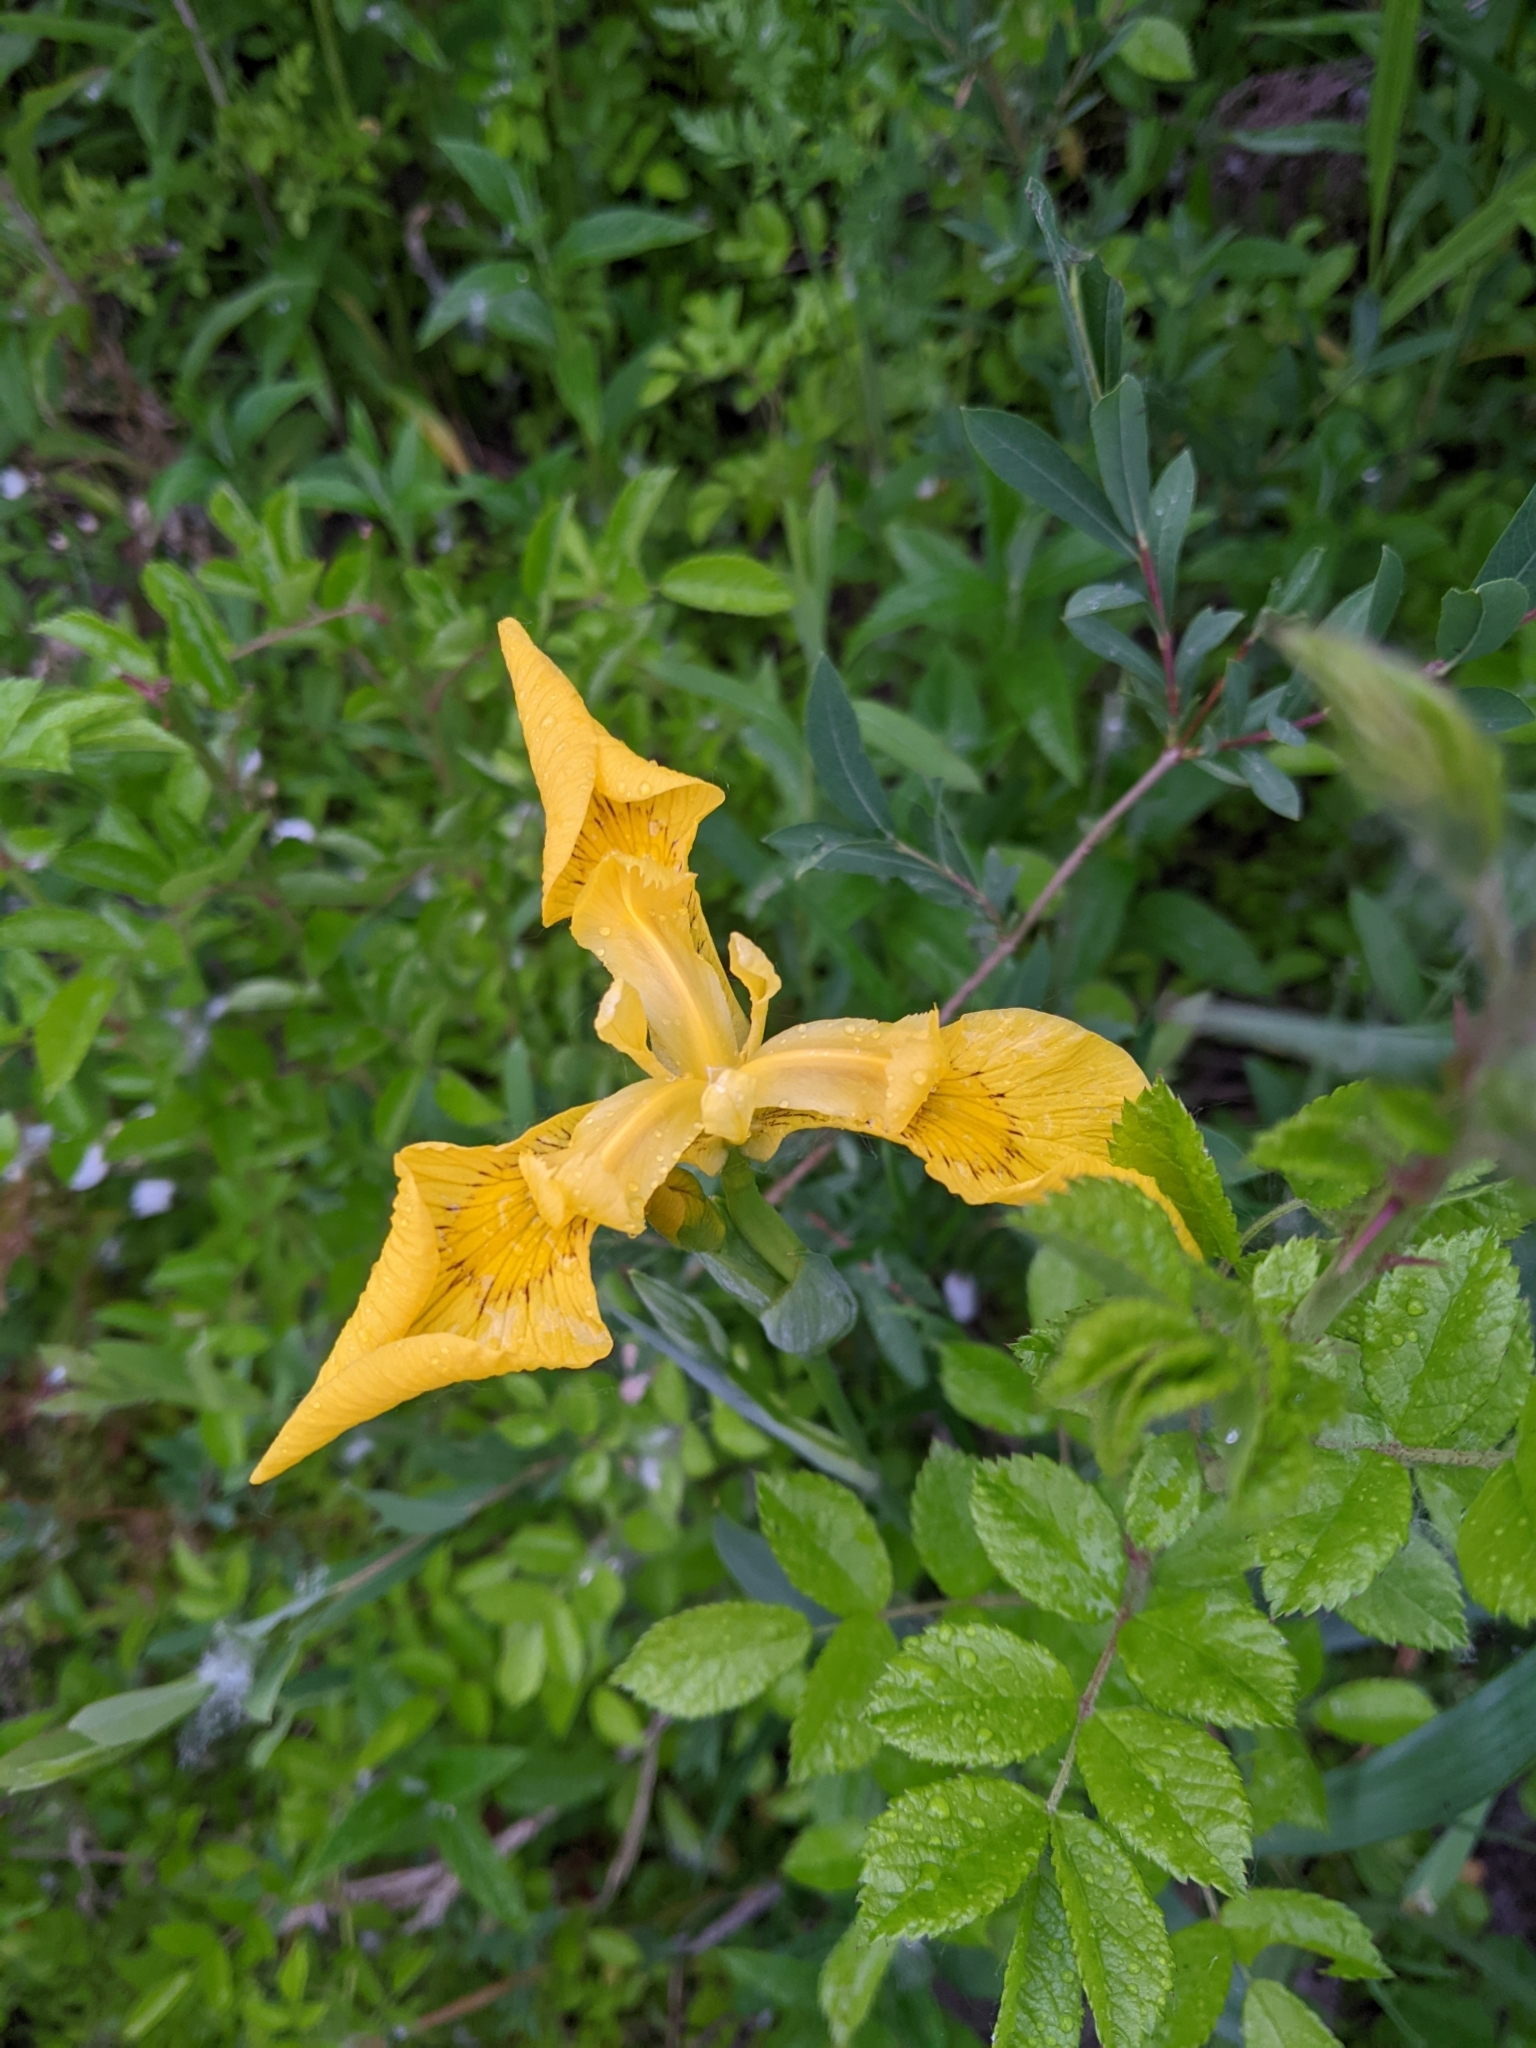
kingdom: Plantae
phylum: Tracheophyta
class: Liliopsida
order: Asparagales
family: Iridaceae
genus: Iris
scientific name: Iris pseudacorus
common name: Yellow flag
